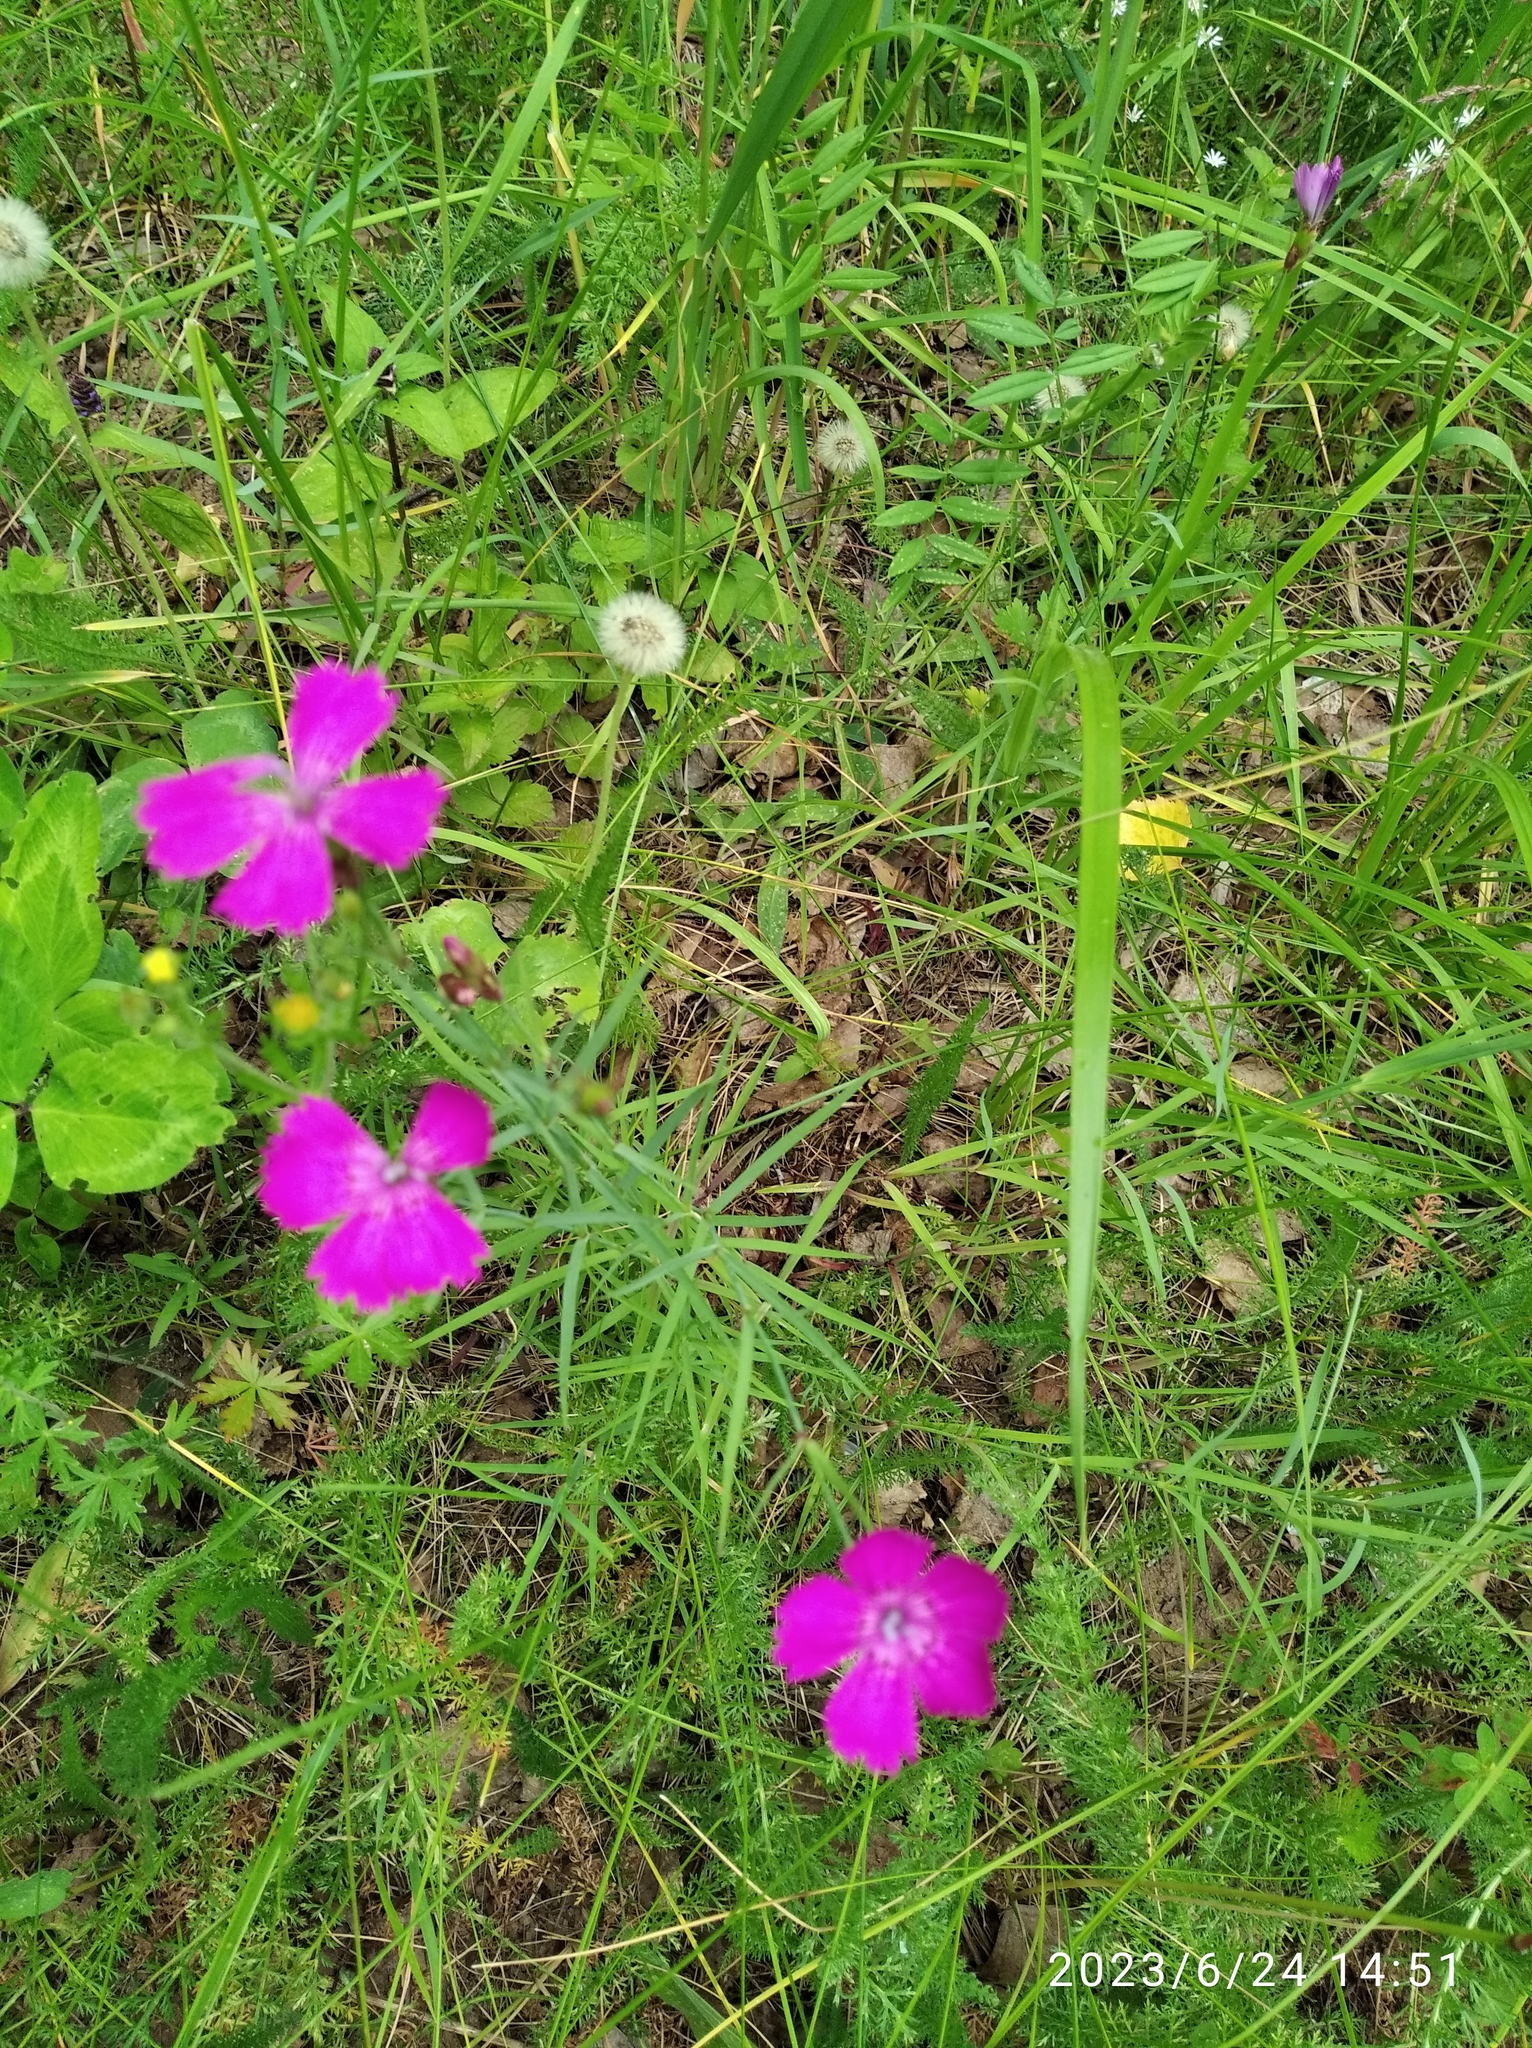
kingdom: Plantae
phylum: Tracheophyta
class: Magnoliopsida
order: Caryophyllales
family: Caryophyllaceae
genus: Dianthus
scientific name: Dianthus chinensis
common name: Rainbow pink
